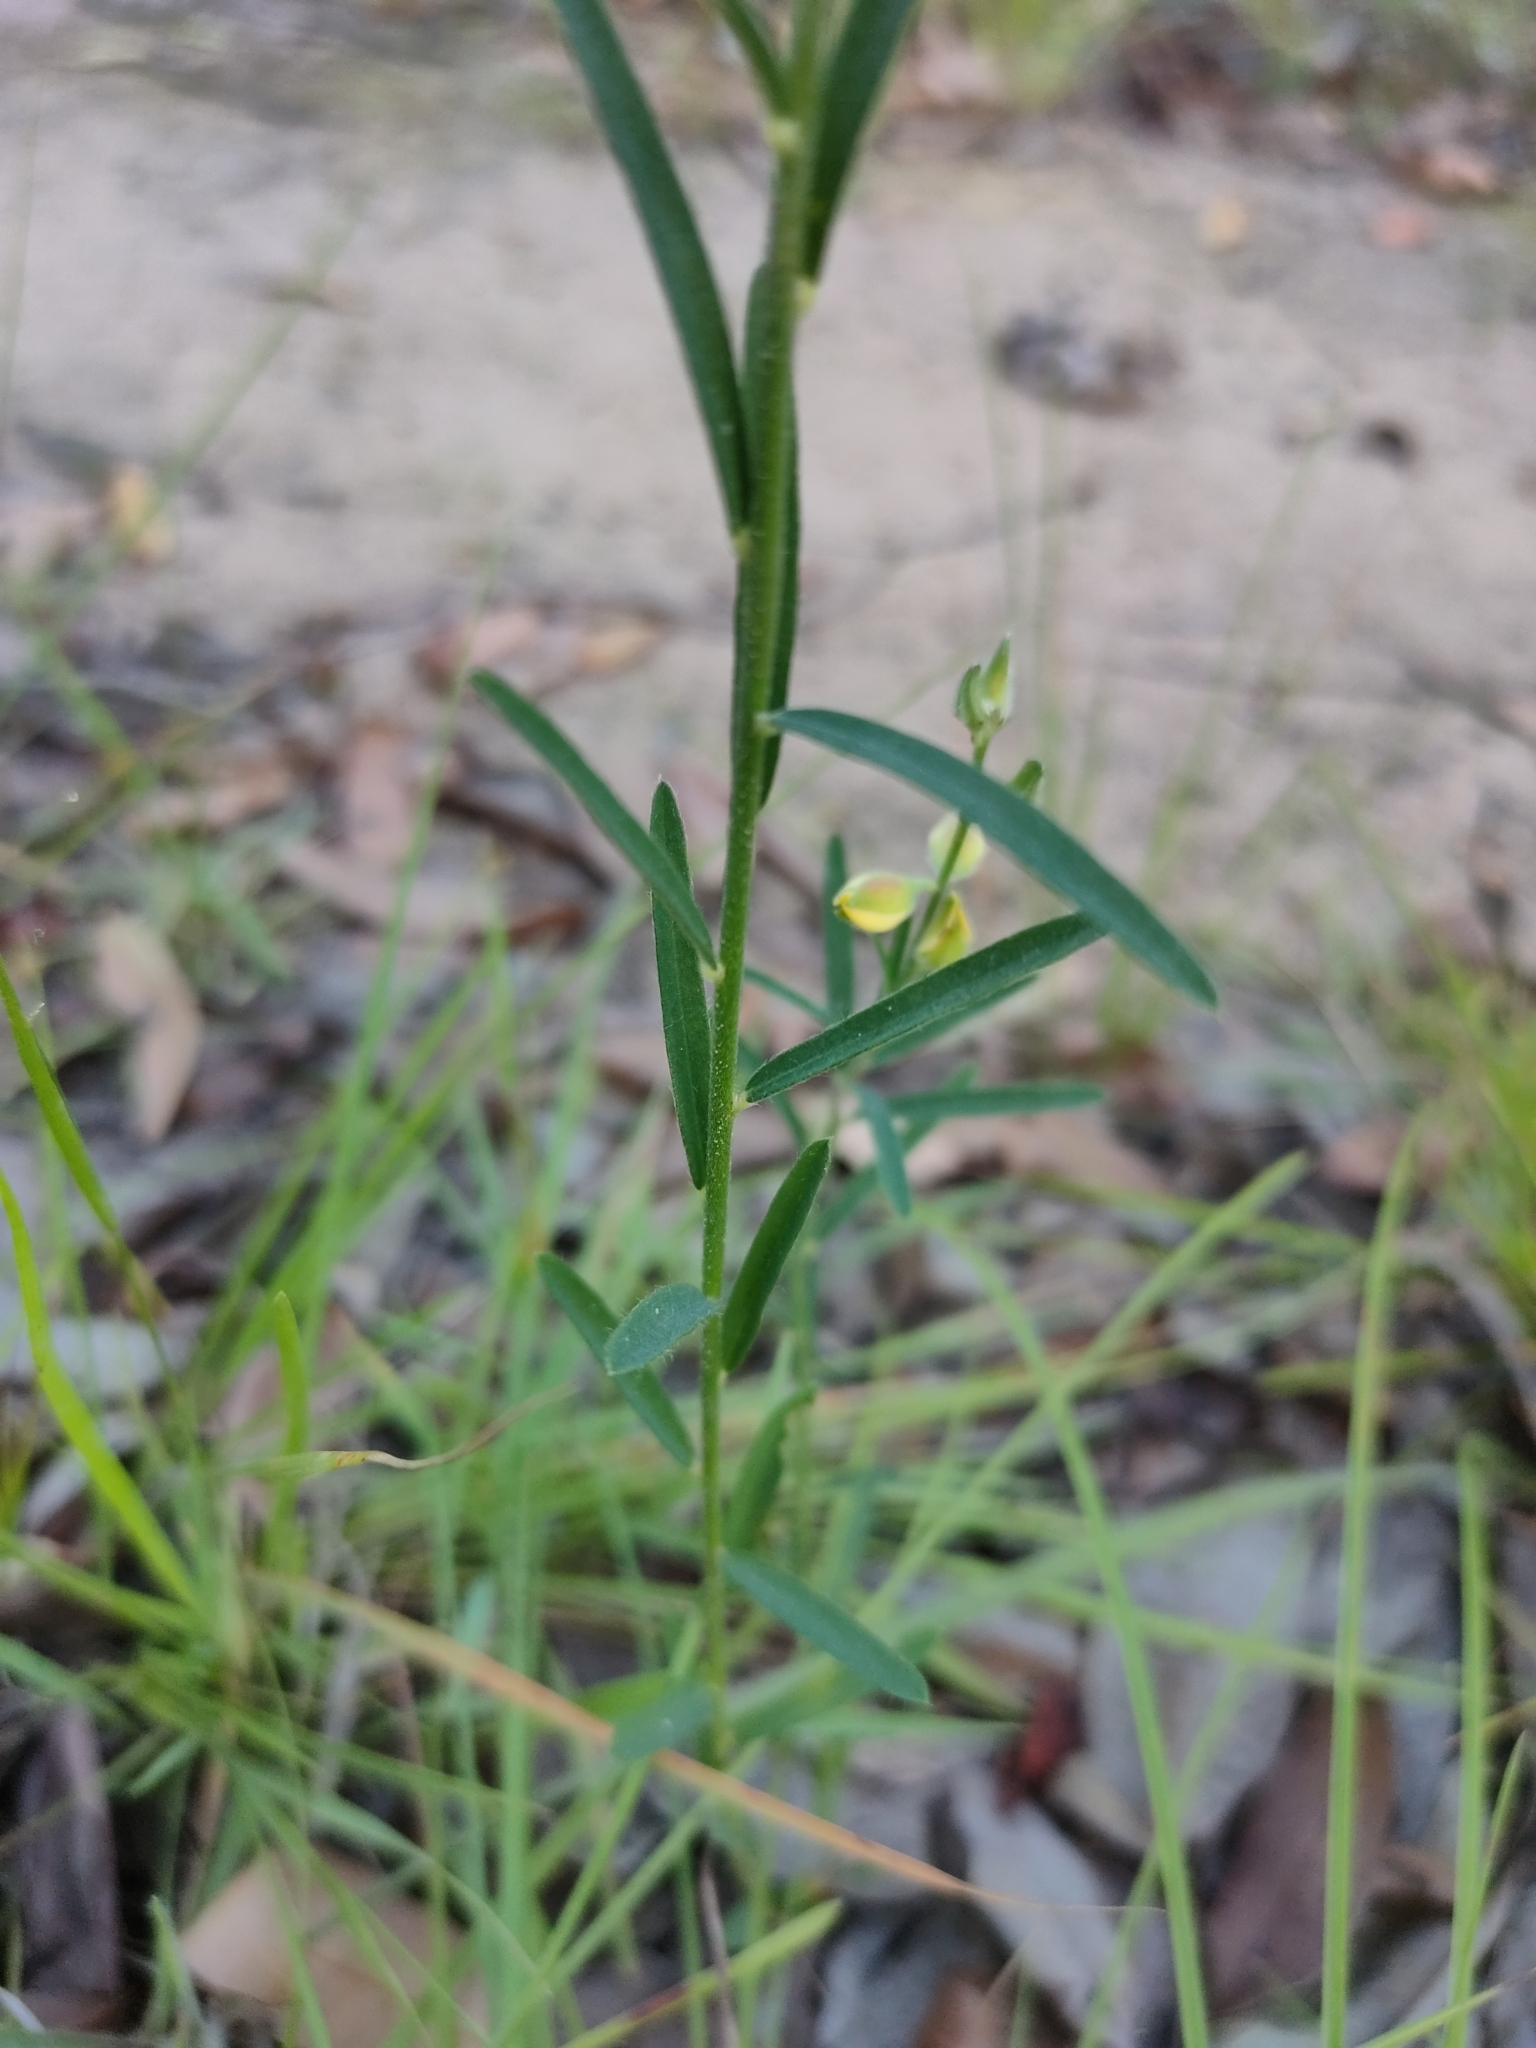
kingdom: Plantae
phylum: Tracheophyta
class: Magnoliopsida
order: Fabales
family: Fabaceae
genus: Crotalaria
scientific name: Crotalaria brevis
